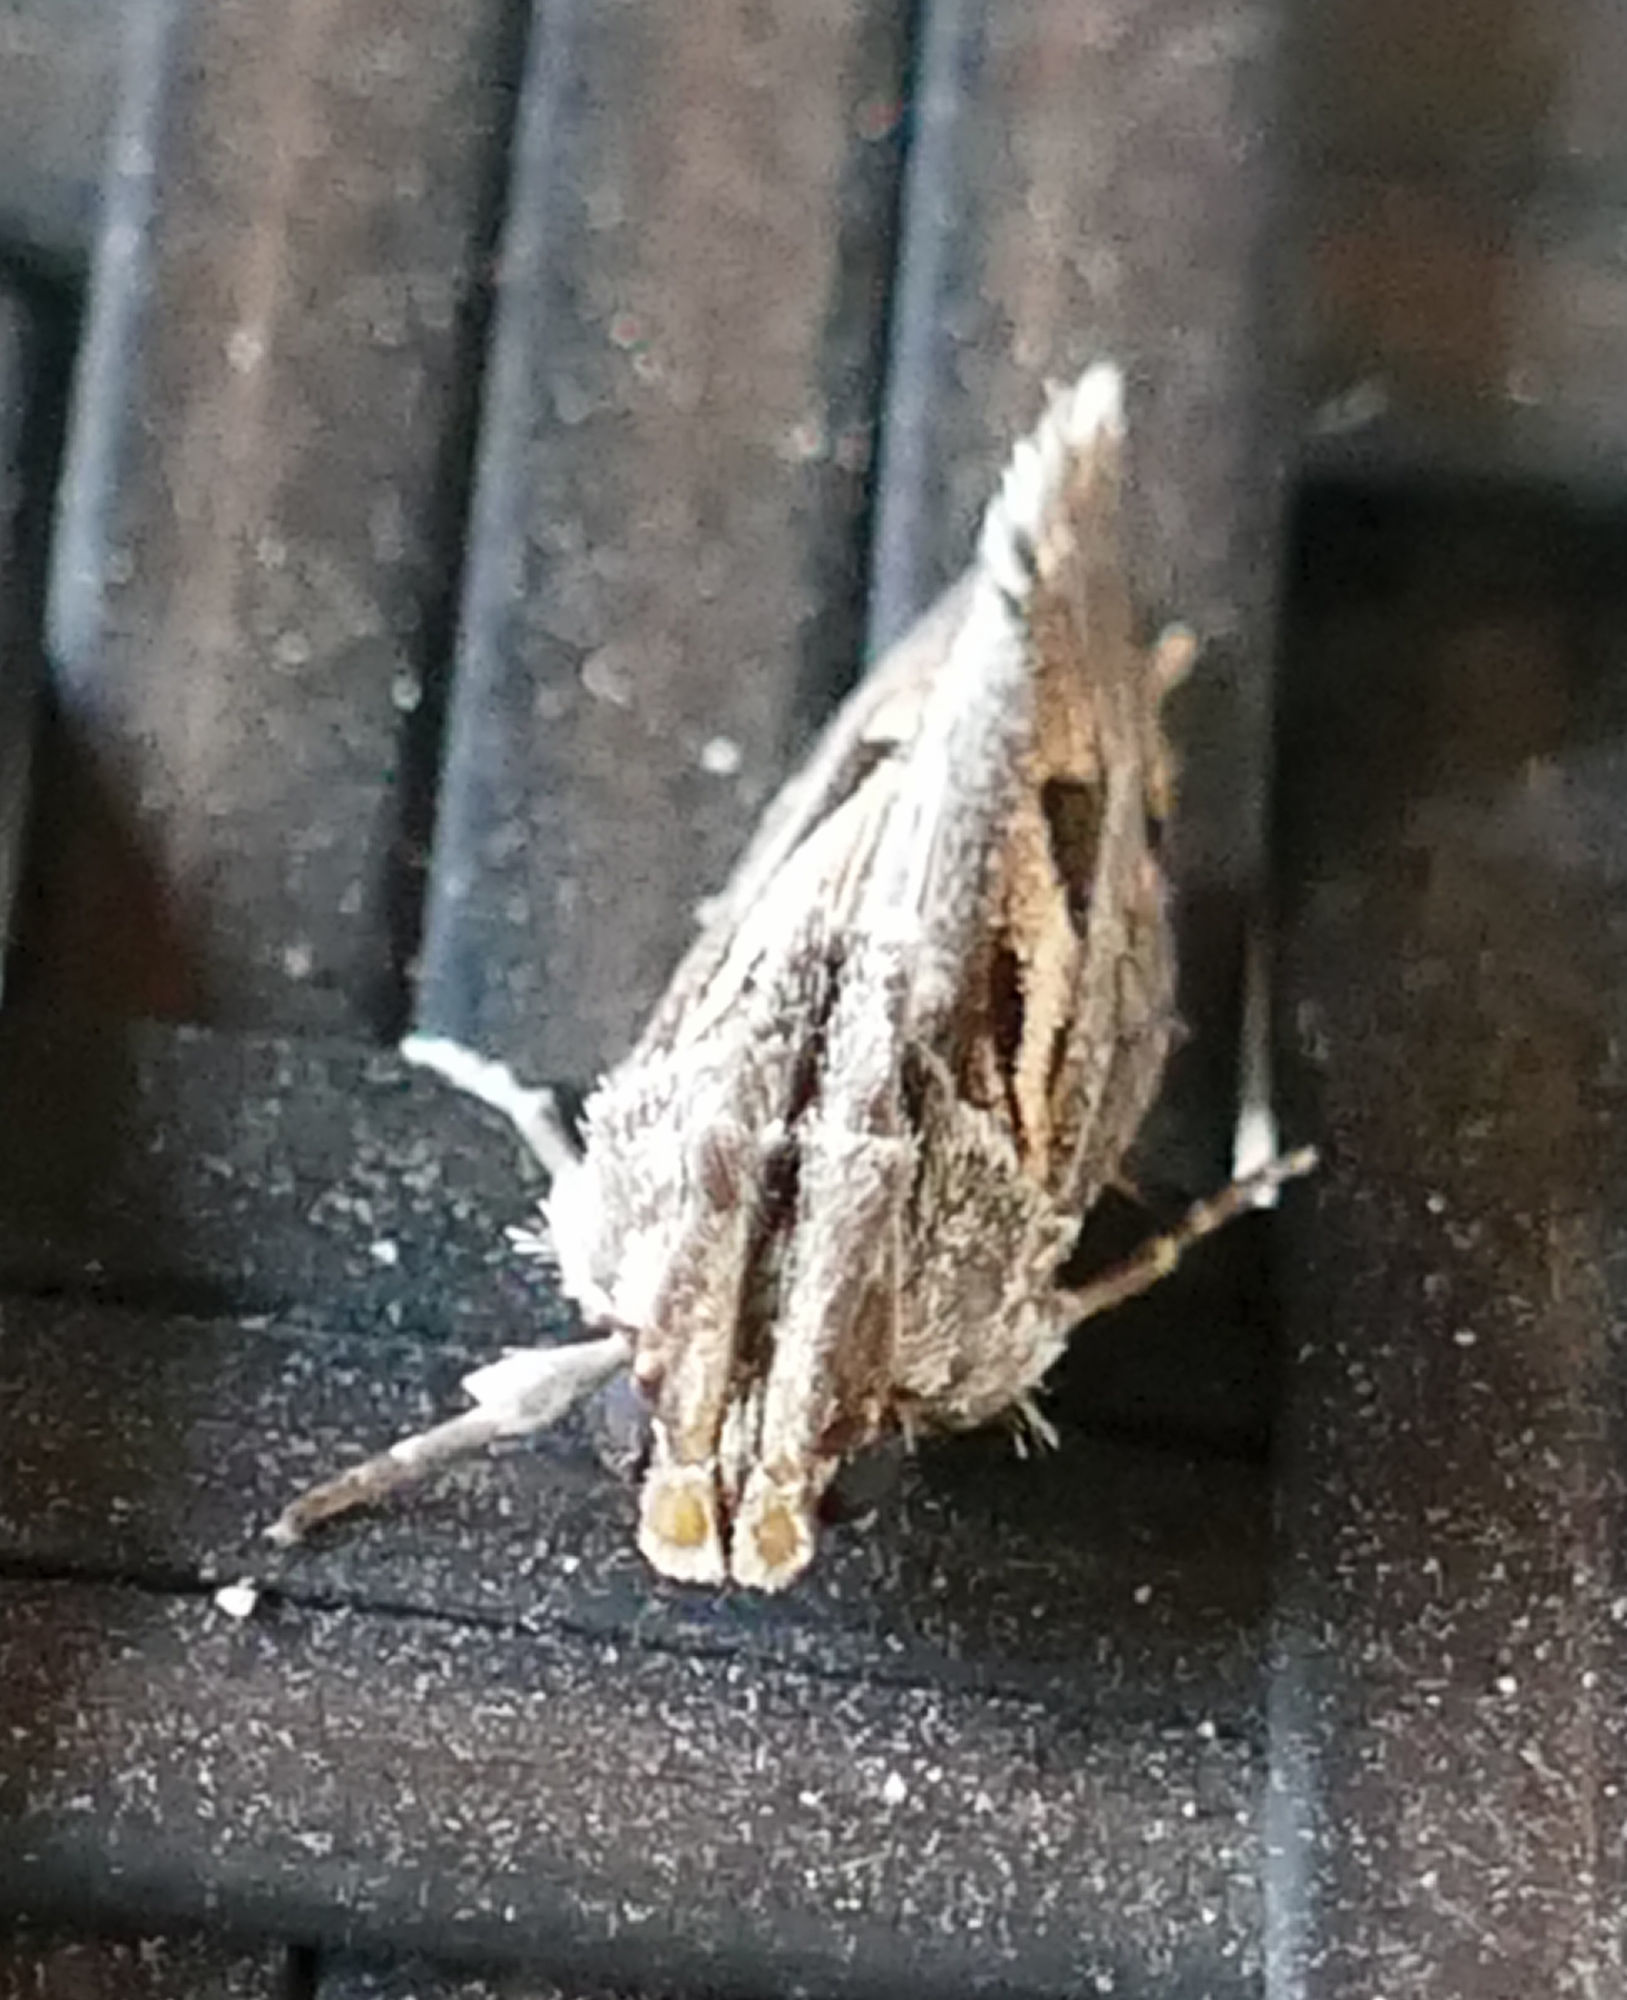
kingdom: Animalia
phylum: Arthropoda
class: Insecta
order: Lepidoptera
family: Tineidae
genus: Acrolophus
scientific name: Acrolophus popeanella
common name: Clemens' grass tubeworm moth
